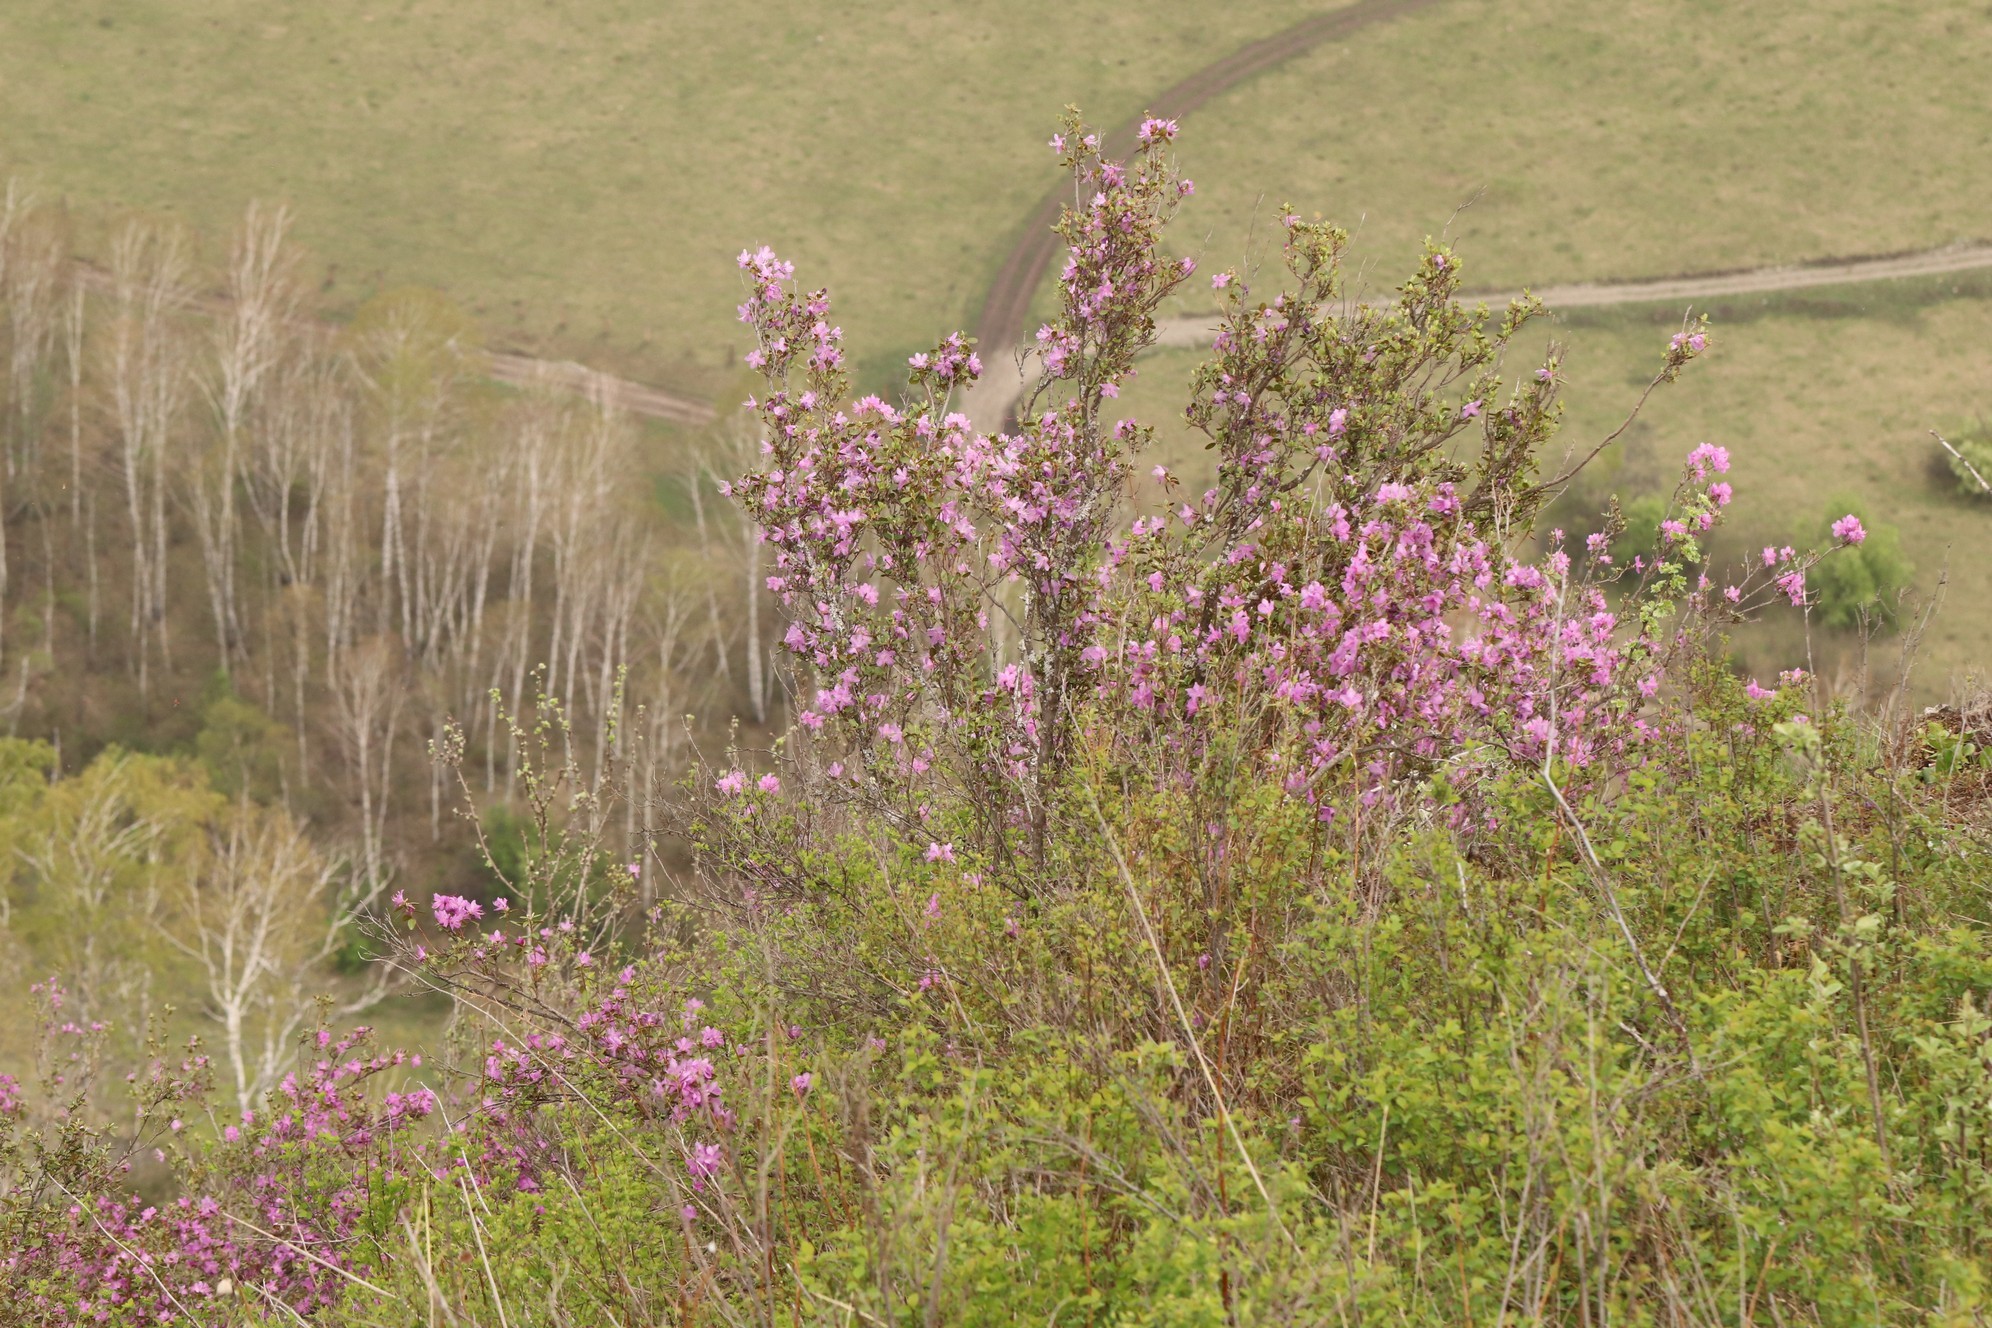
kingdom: Plantae
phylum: Tracheophyta
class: Magnoliopsida
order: Ericales
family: Ericaceae
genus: Rhododendron
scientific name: Rhododendron dauricum
